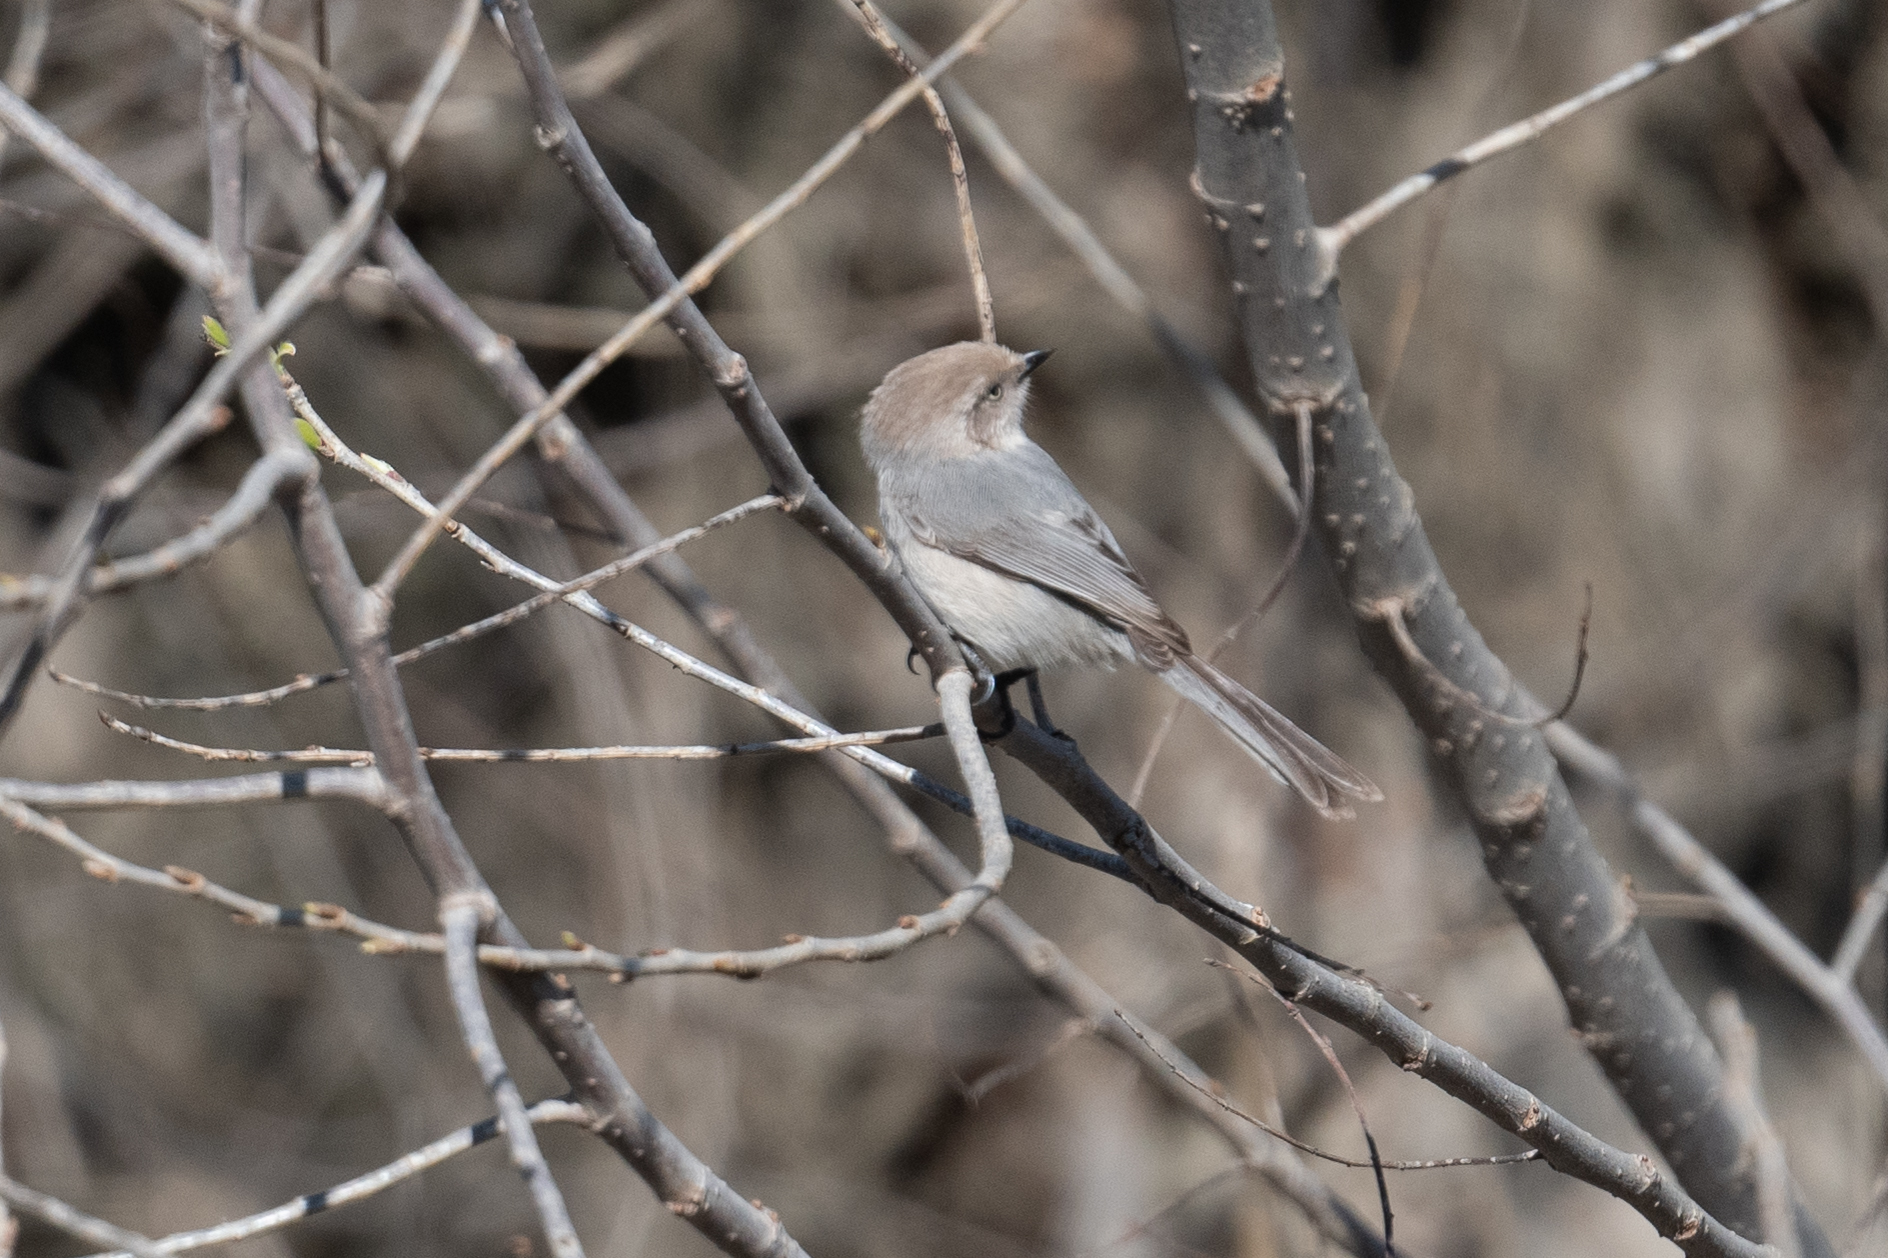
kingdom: Animalia
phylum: Chordata
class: Aves
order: Passeriformes
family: Aegithalidae
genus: Psaltriparus
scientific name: Psaltriparus minimus
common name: American bushtit
